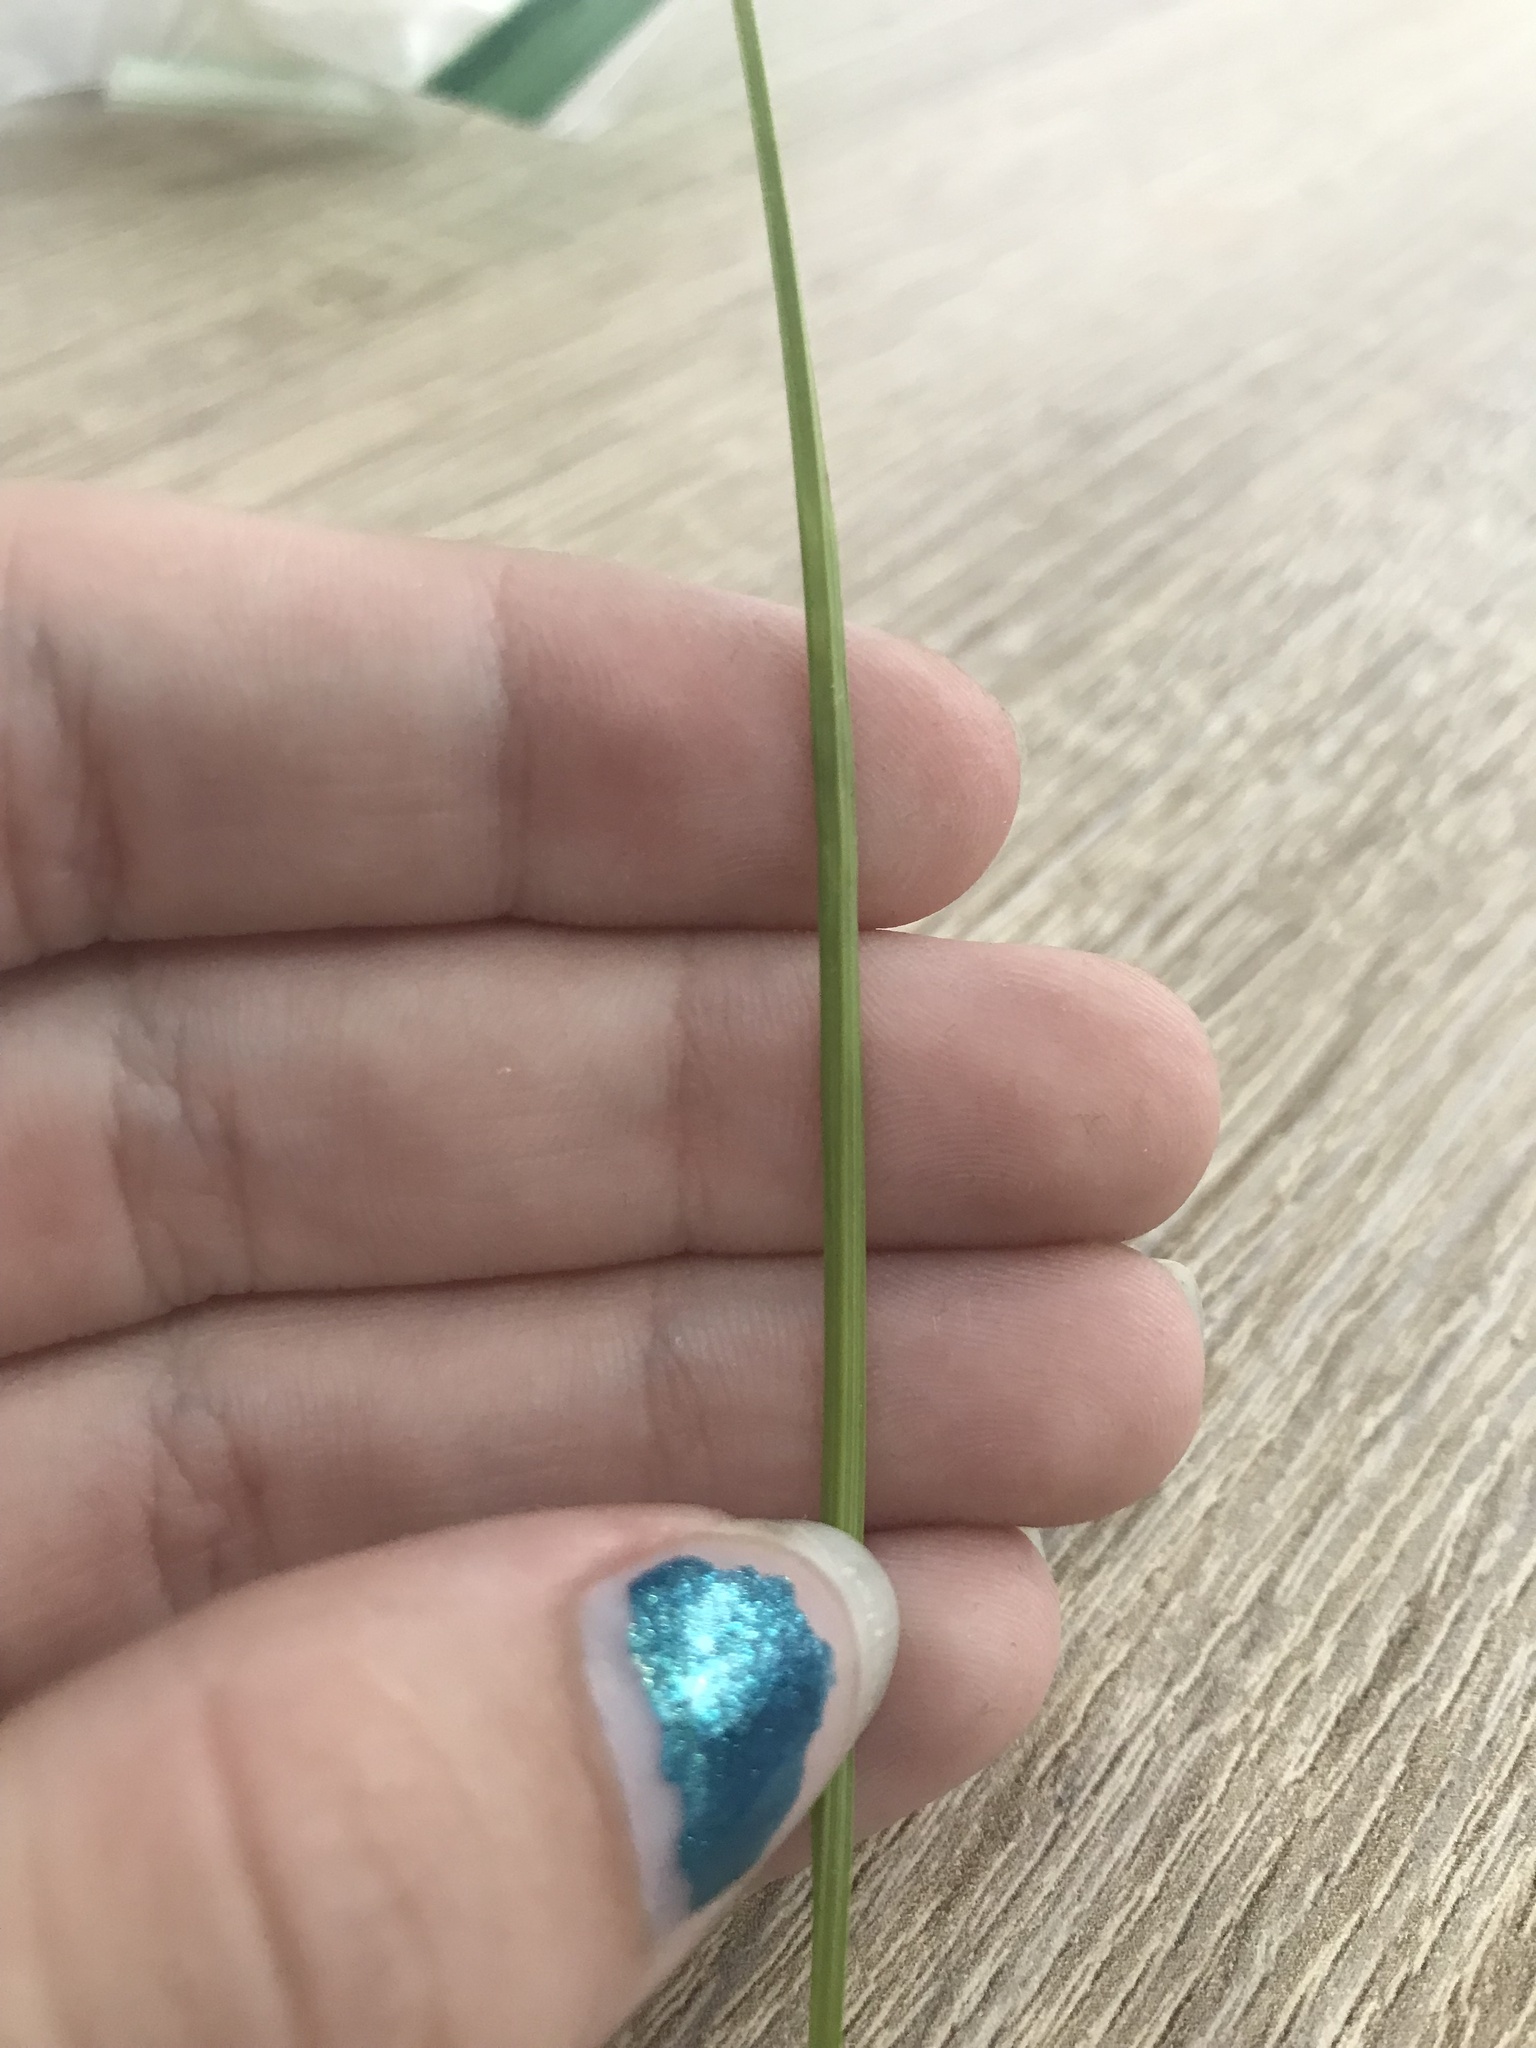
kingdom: Plantae
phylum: Tracheophyta
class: Liliopsida
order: Poales
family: Cyperaceae
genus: Carex
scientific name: Carex tenera
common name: Broad-fruited sedge
